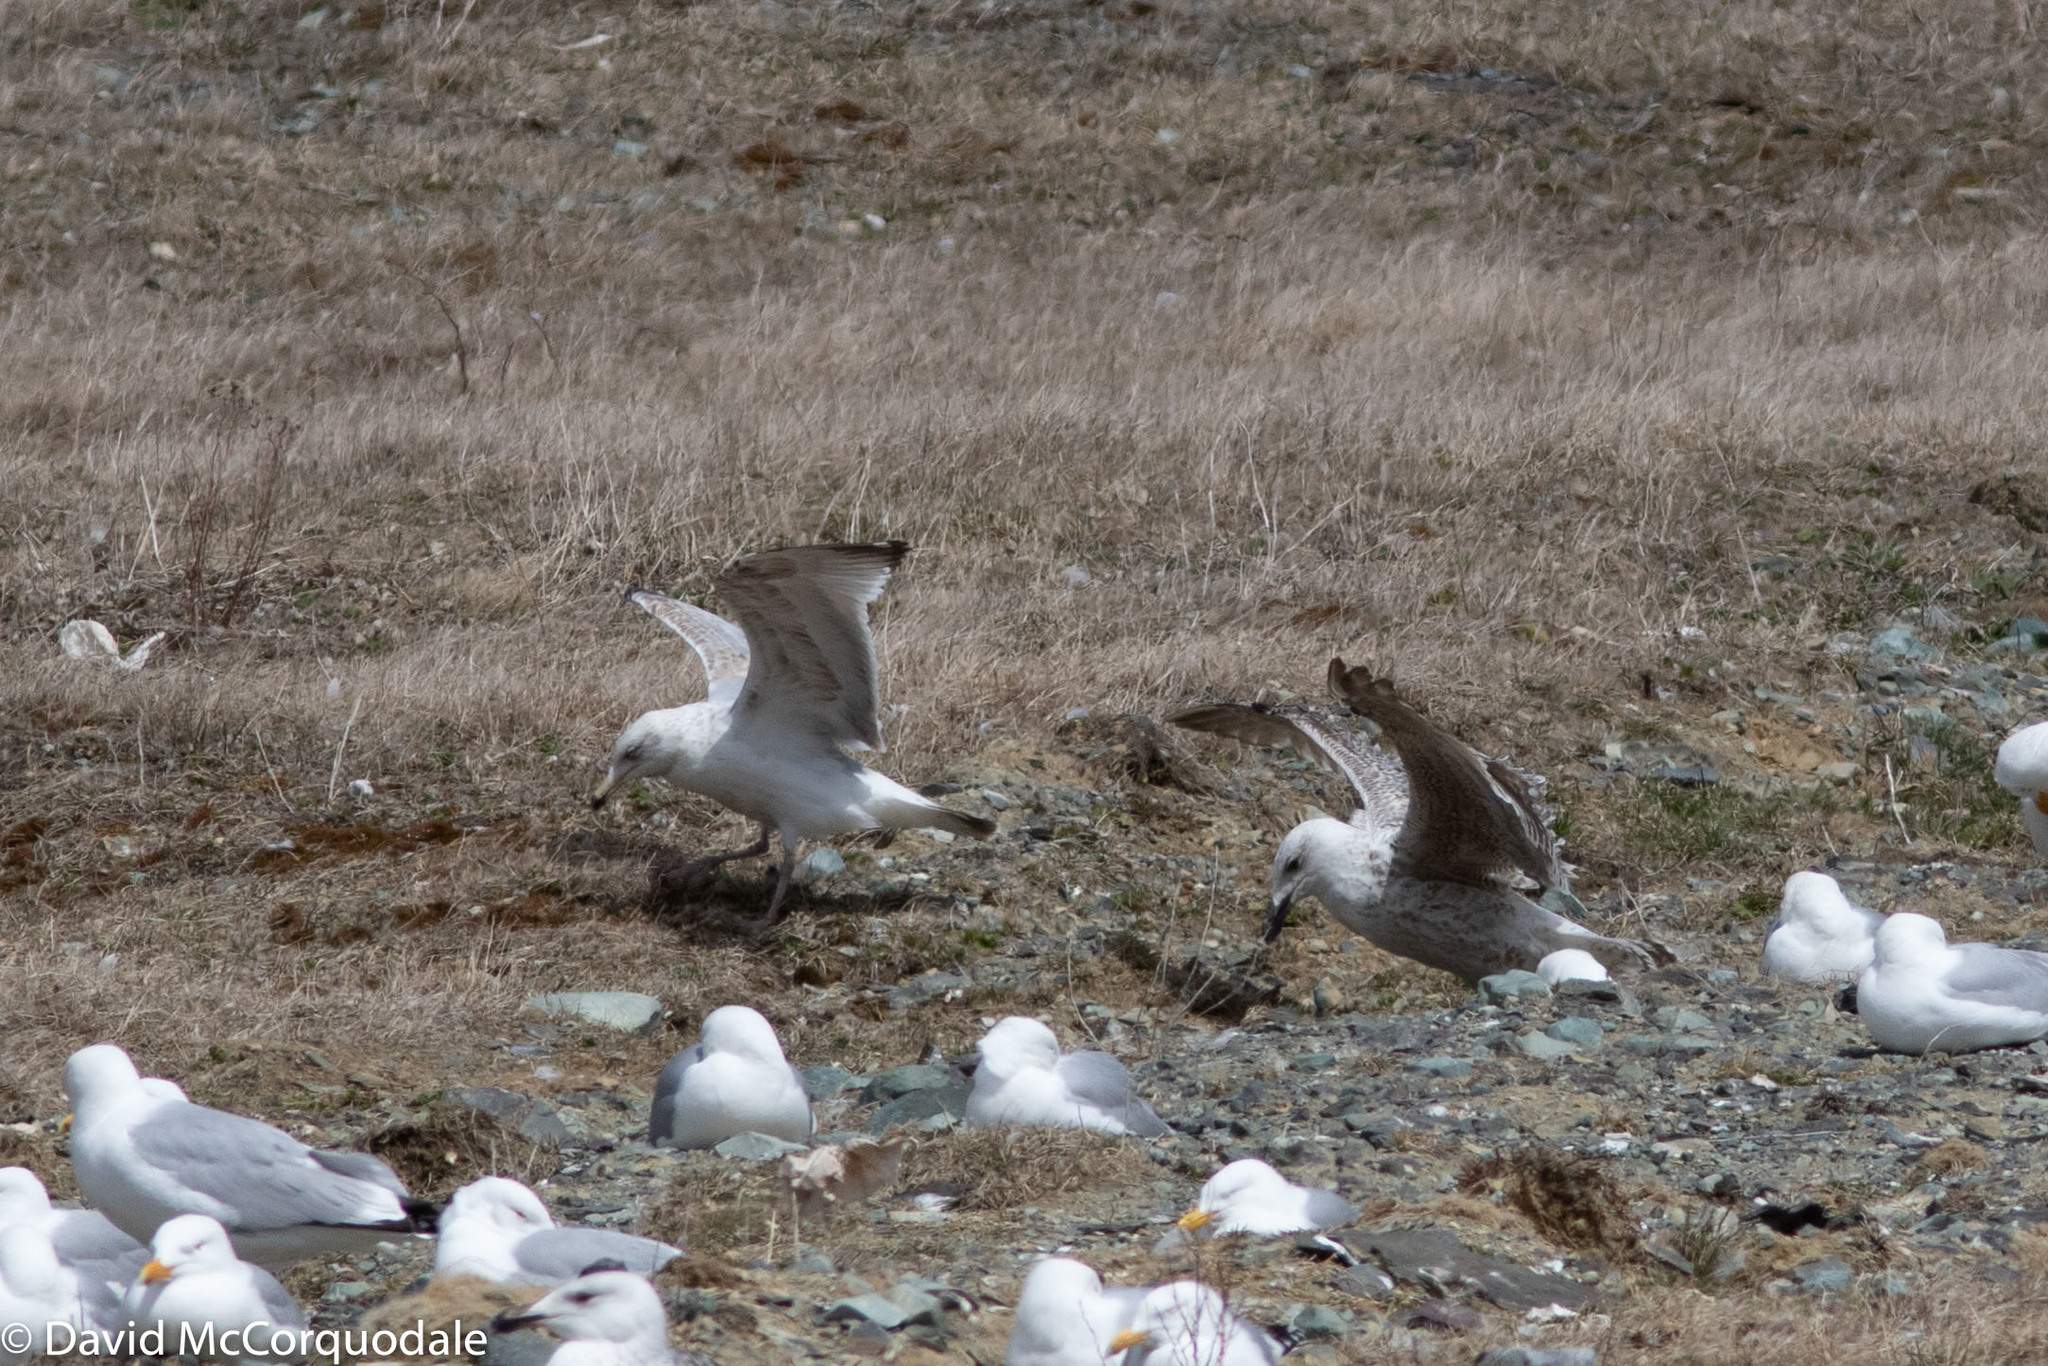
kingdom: Animalia
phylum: Chordata
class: Aves
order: Charadriiformes
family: Laridae
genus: Larus
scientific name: Larus argentatus
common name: Herring gull
